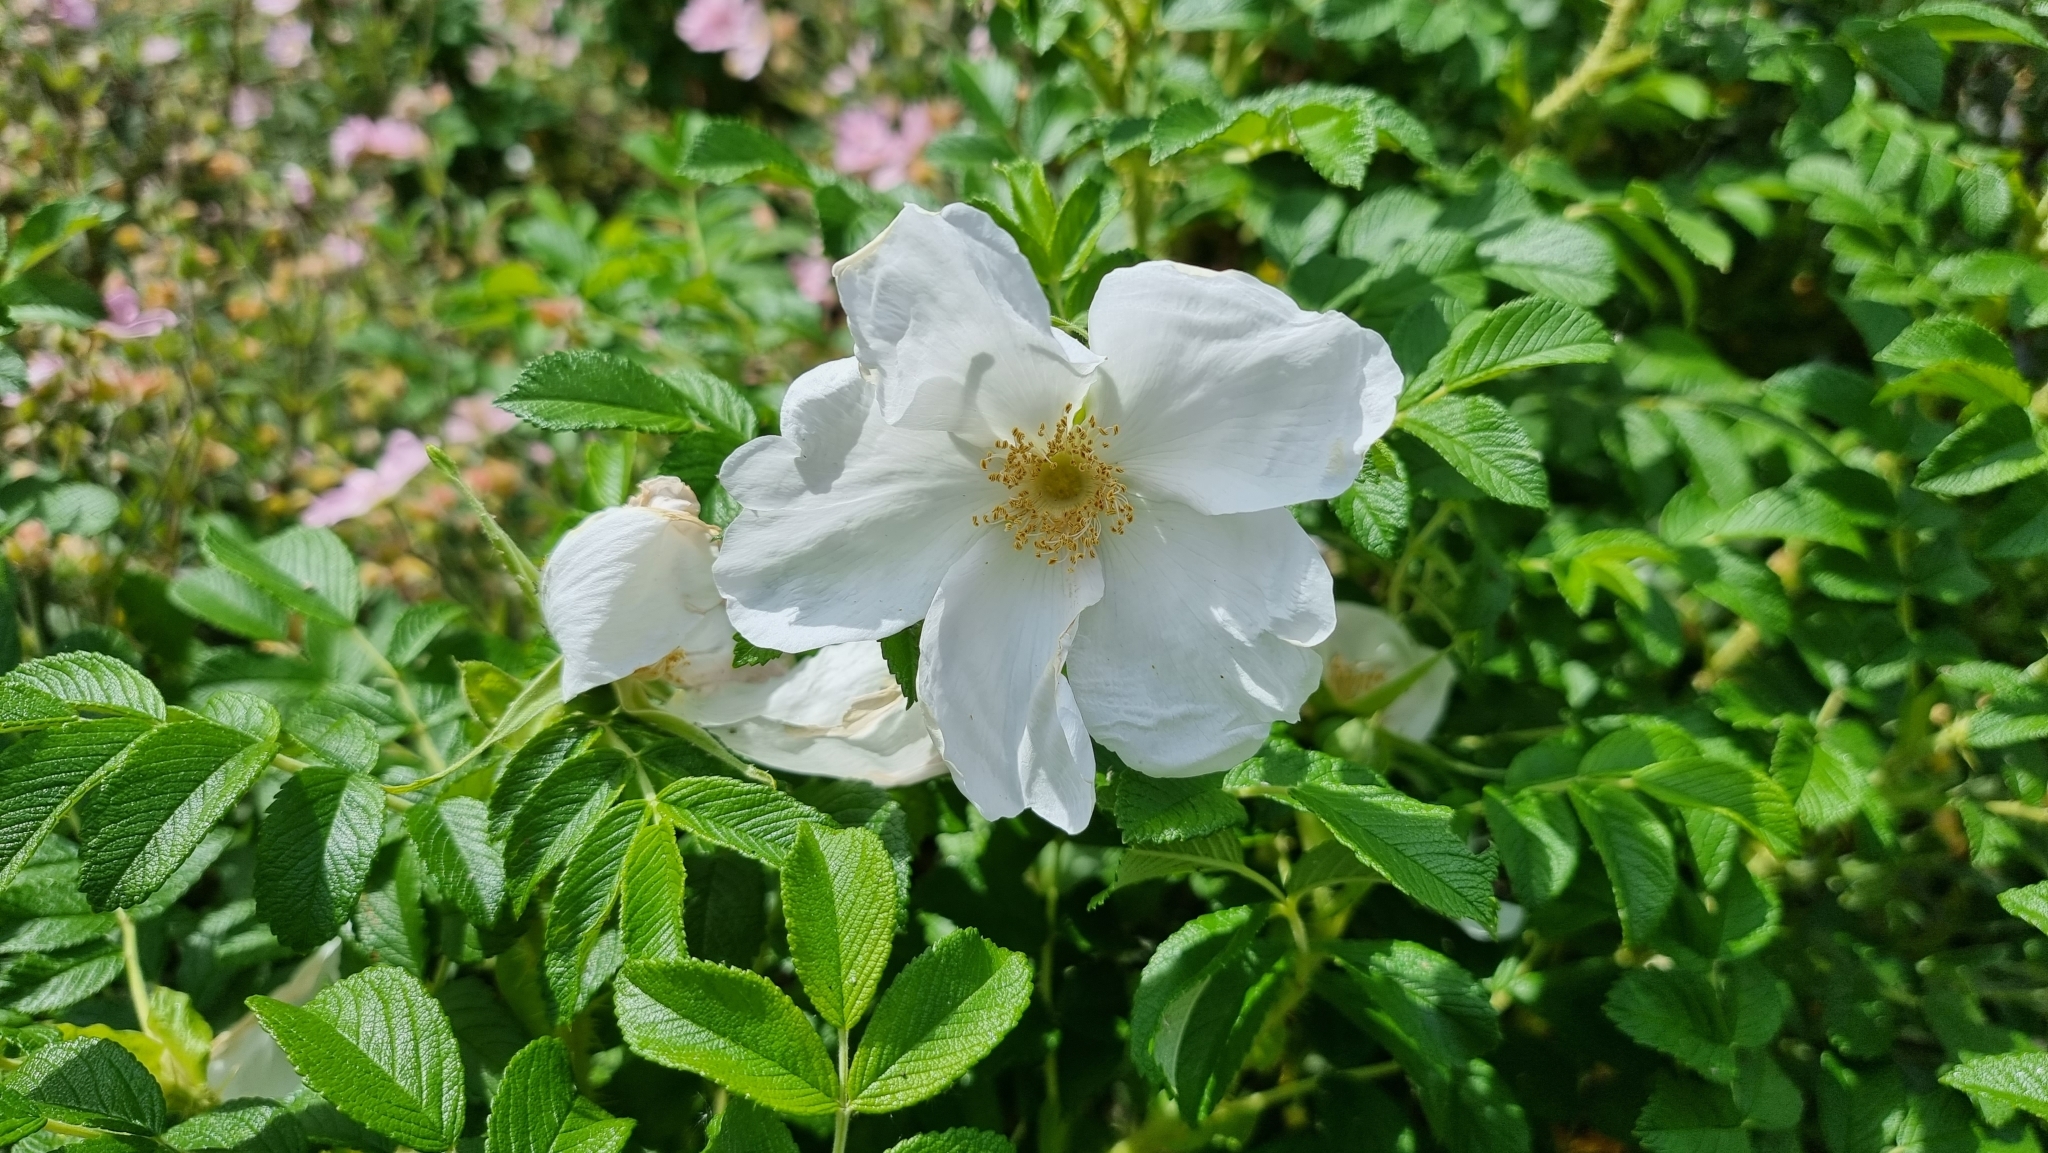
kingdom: Plantae
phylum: Tracheophyta
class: Magnoliopsida
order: Rosales
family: Rosaceae
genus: Rosa
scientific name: Rosa rugosa
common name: Japanese rose
